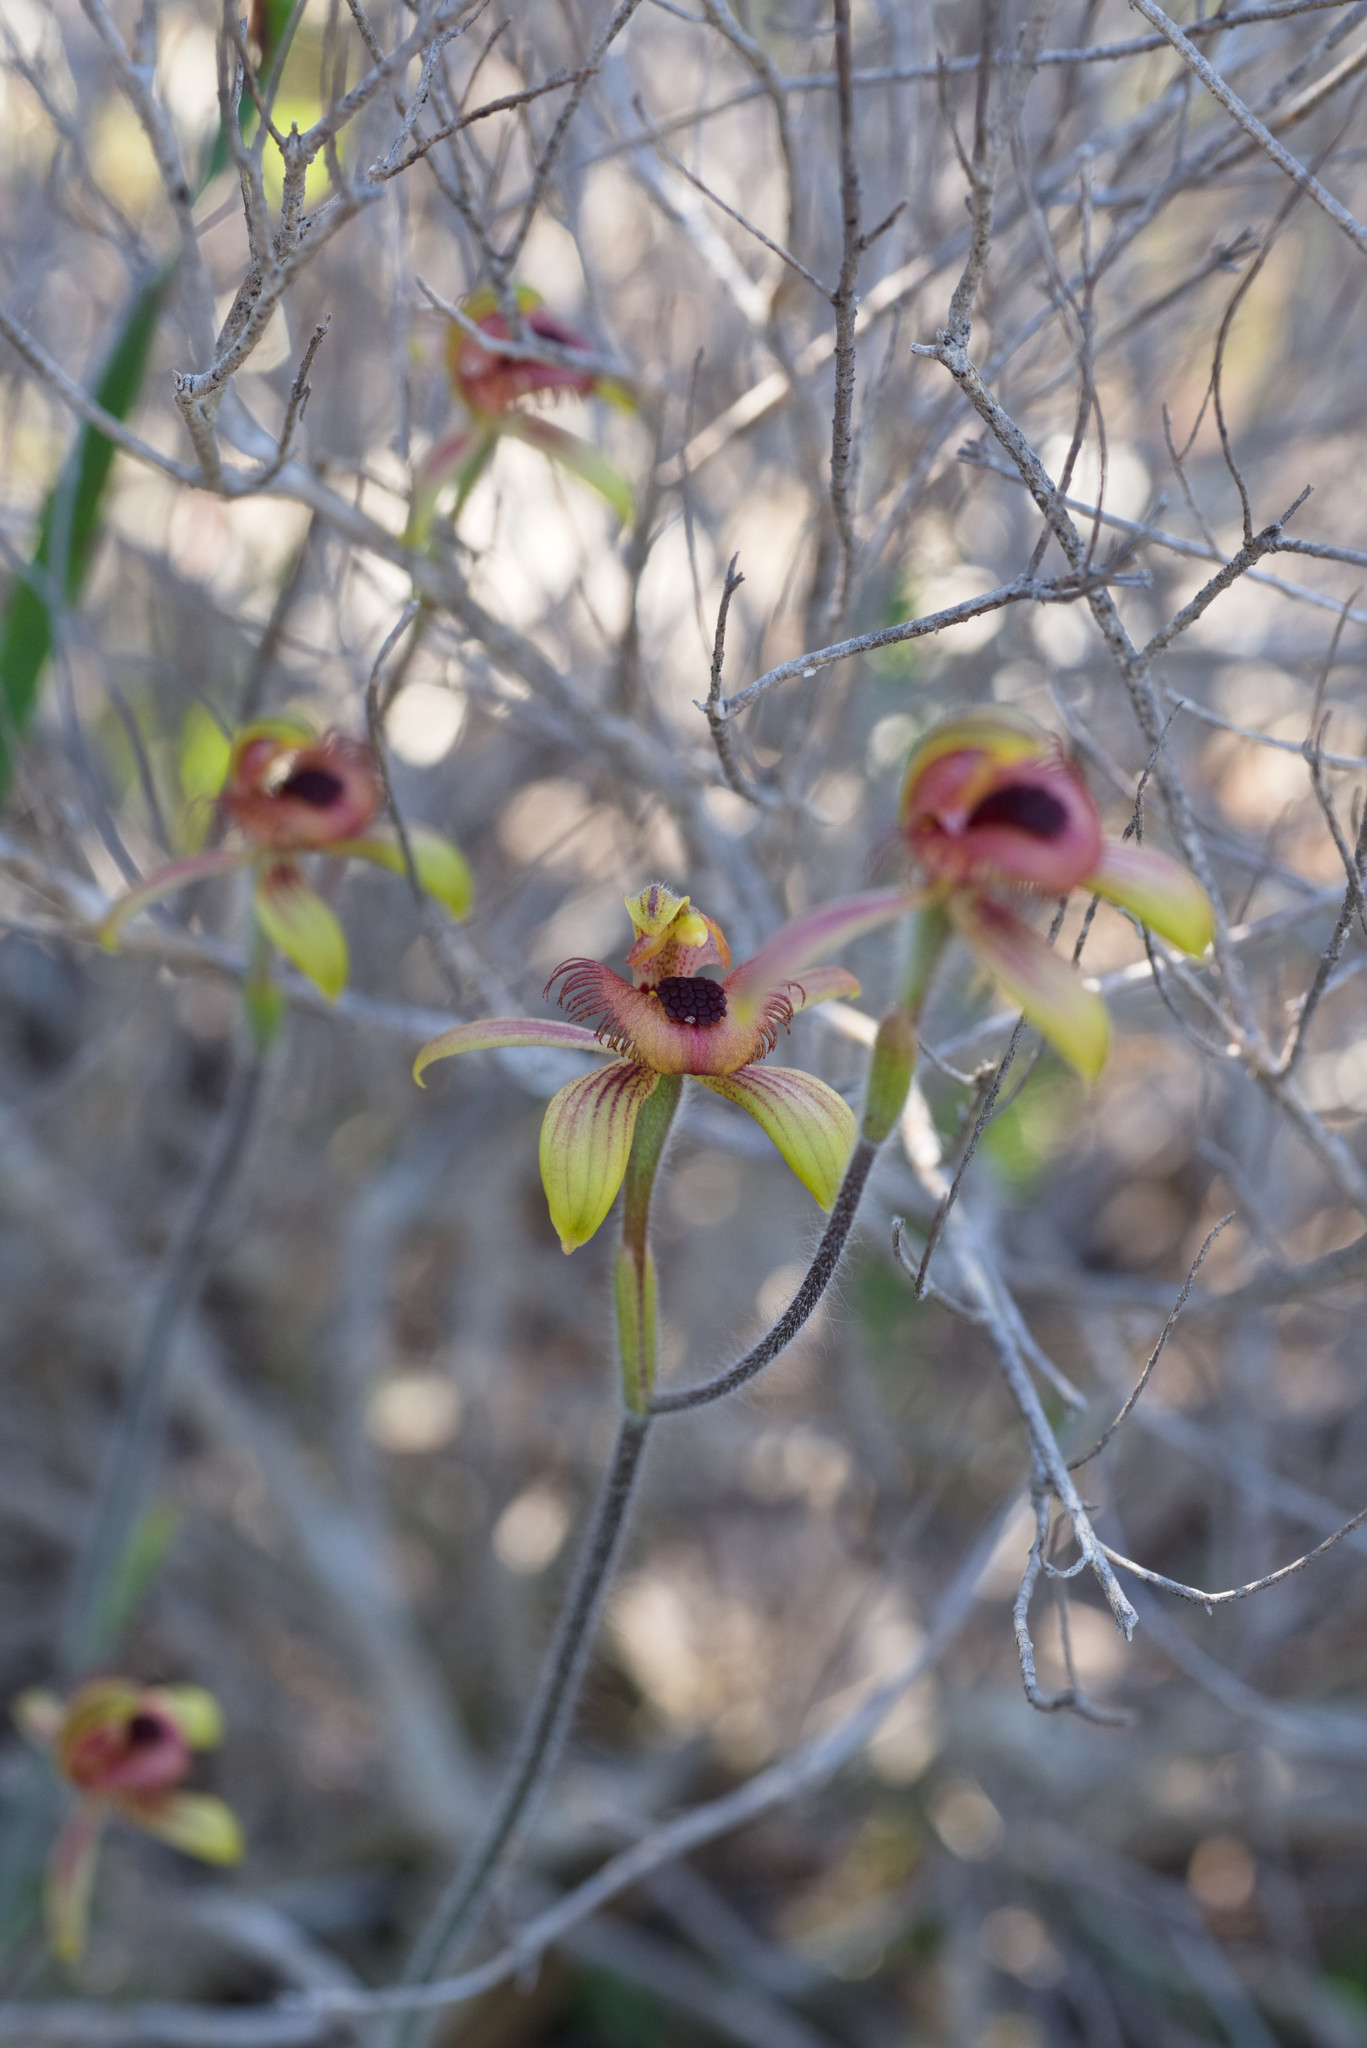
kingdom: Plantae
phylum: Tracheophyta
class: Liliopsida
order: Asparagales
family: Orchidaceae
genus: Caladenia
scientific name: Caladenia discoidea
